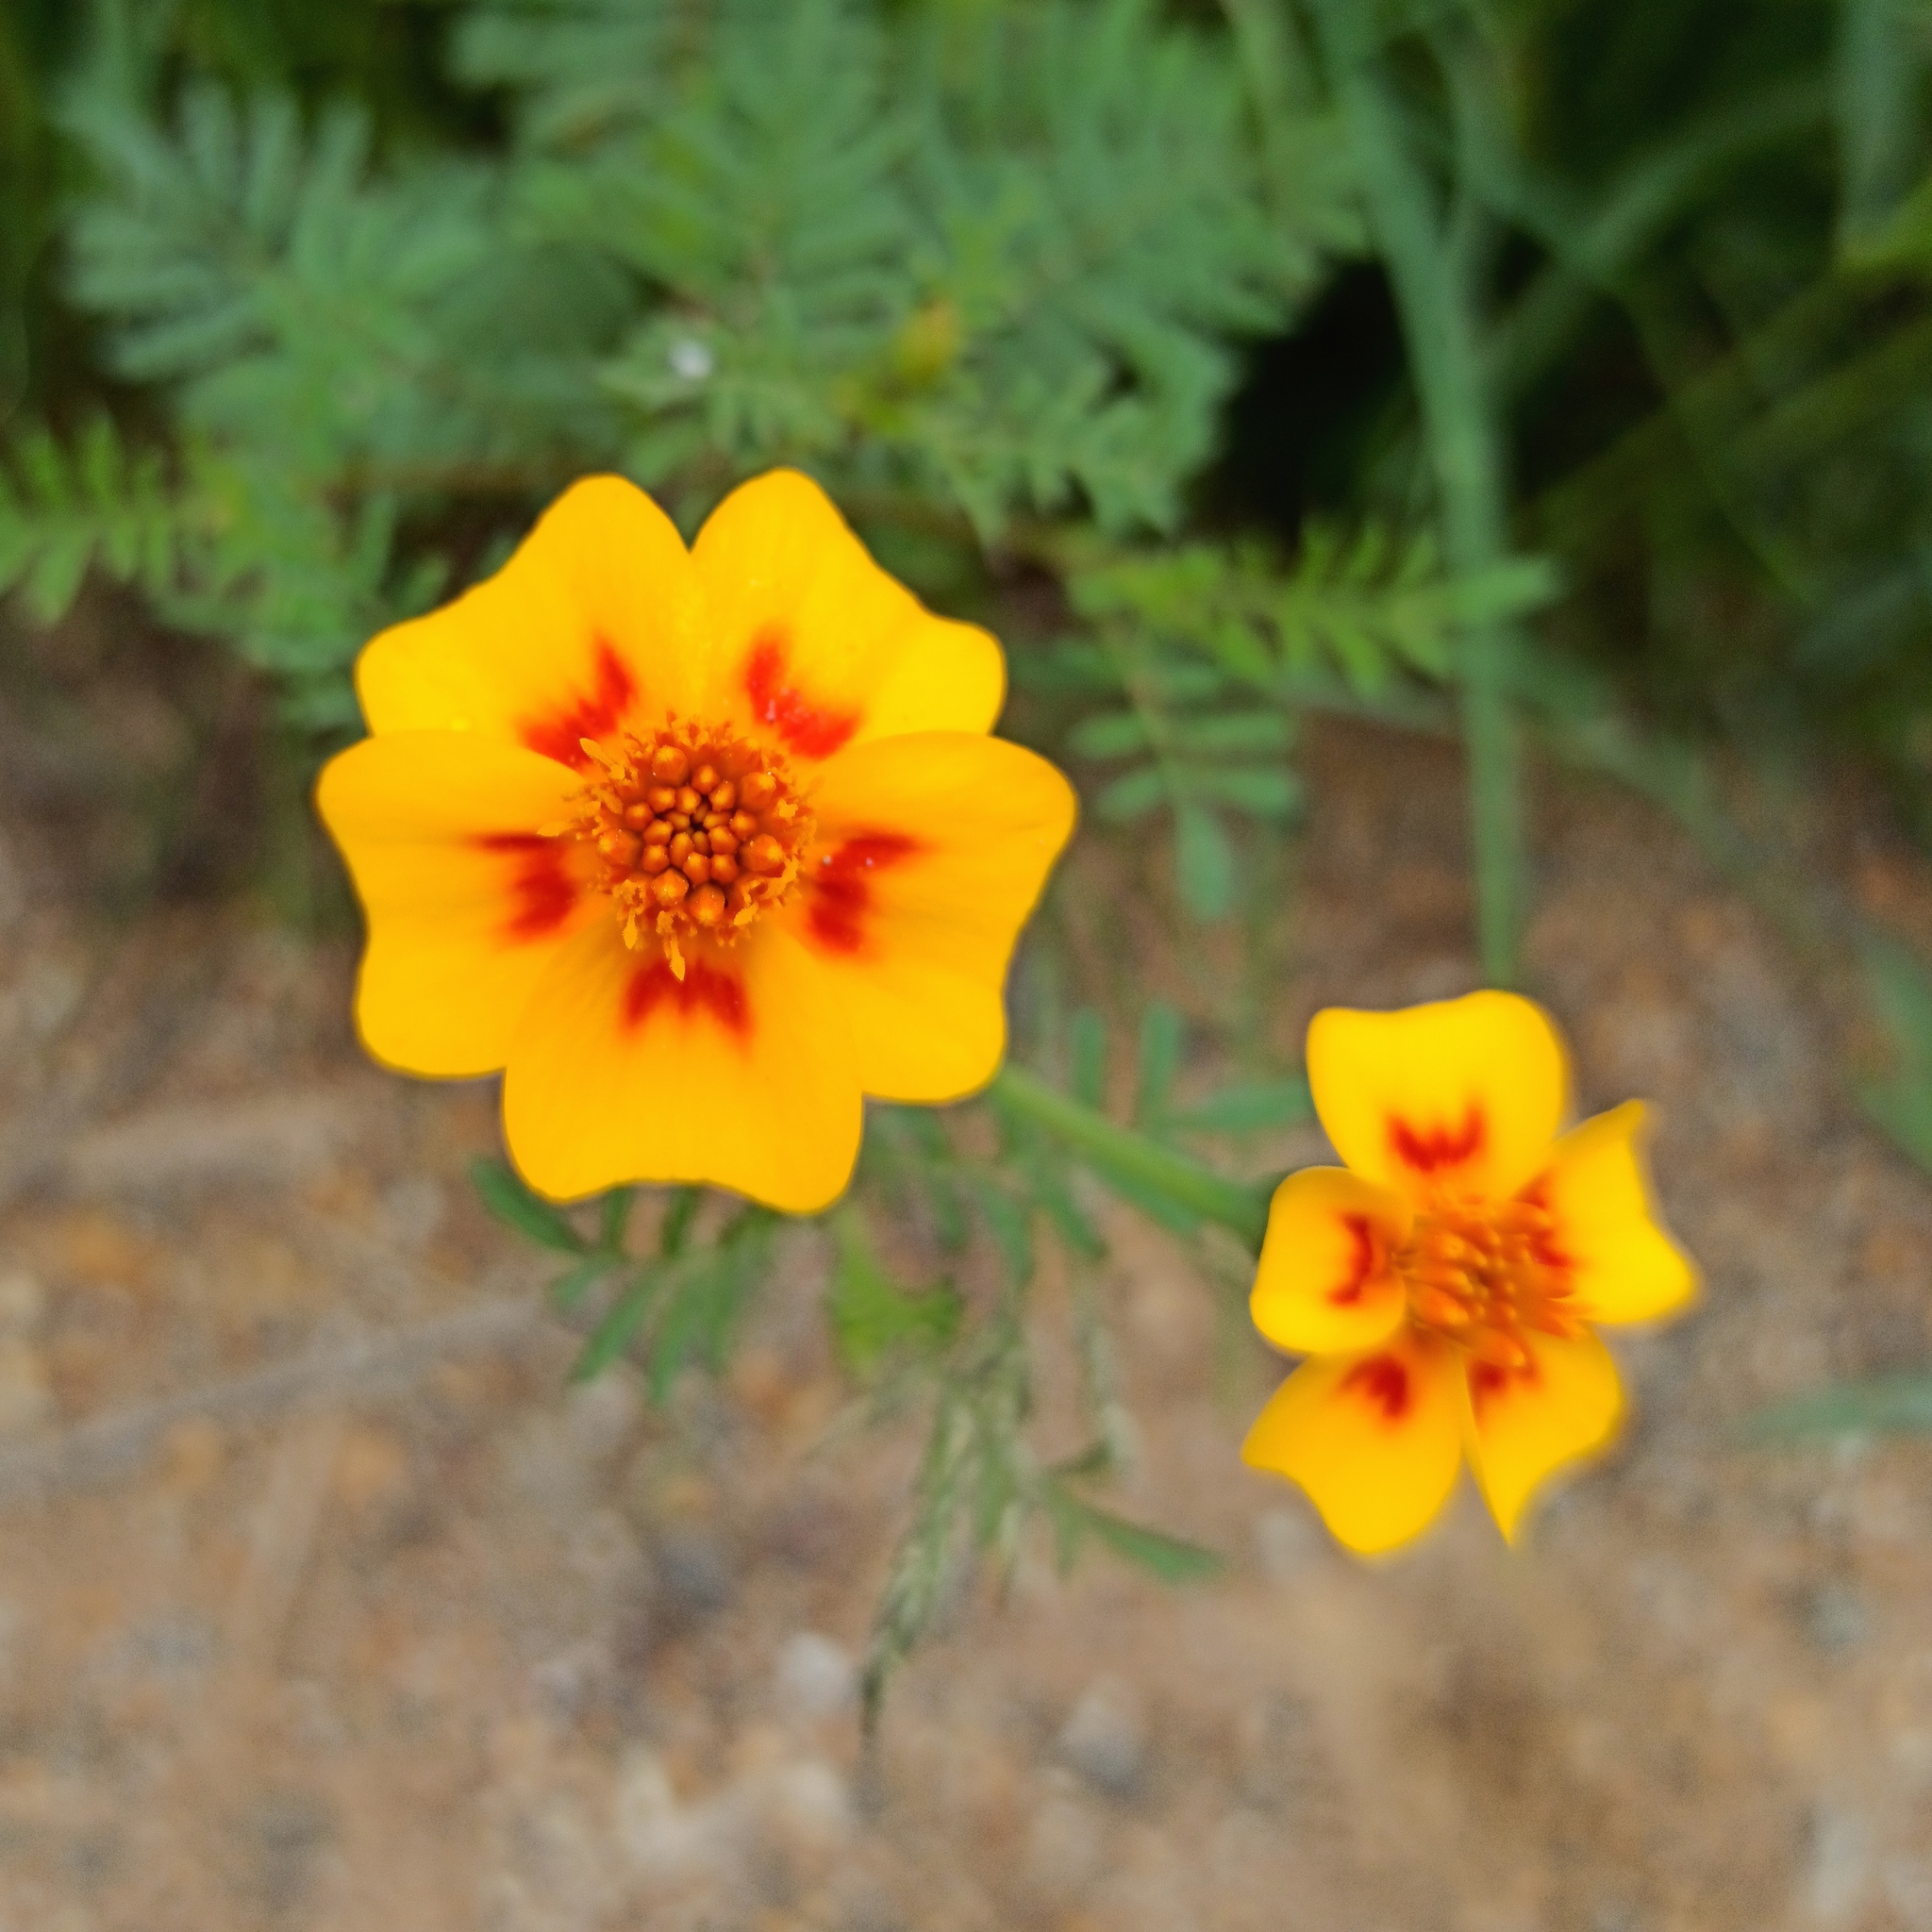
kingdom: Plantae
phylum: Tracheophyta
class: Magnoliopsida
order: Asterales
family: Asteraceae
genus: Tagetes
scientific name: Tagetes lunulata
